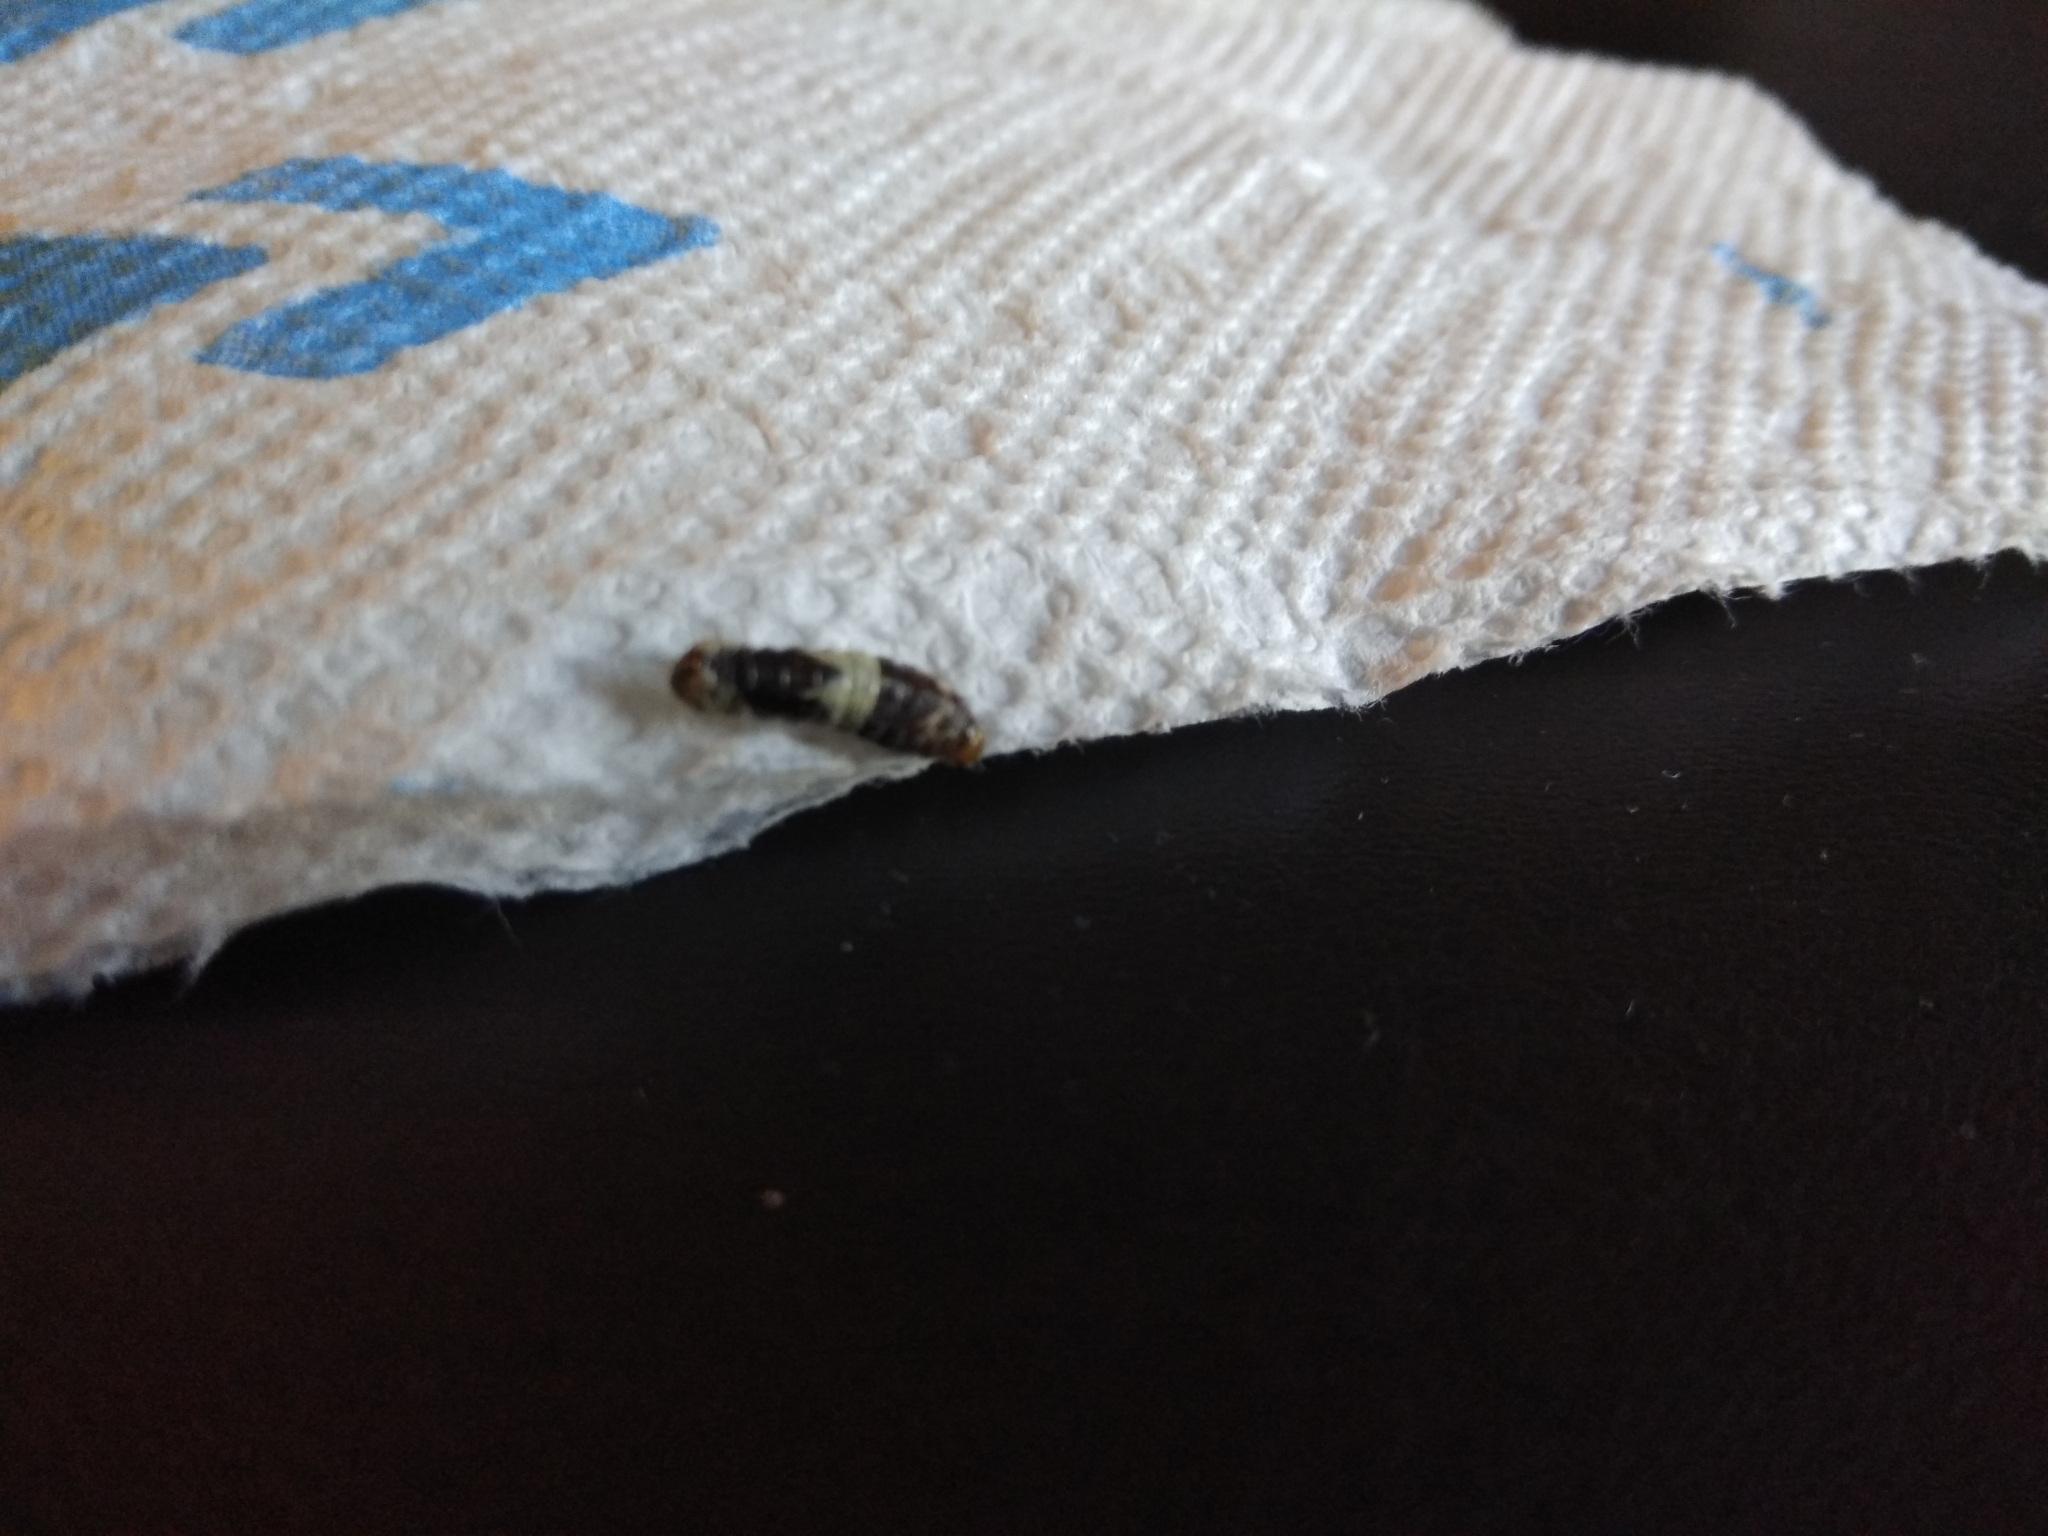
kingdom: Animalia
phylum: Arthropoda
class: Insecta
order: Lepidoptera
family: Papilionidae
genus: Papilio
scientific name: Papilio cresphontes
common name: Giant swallowtail
